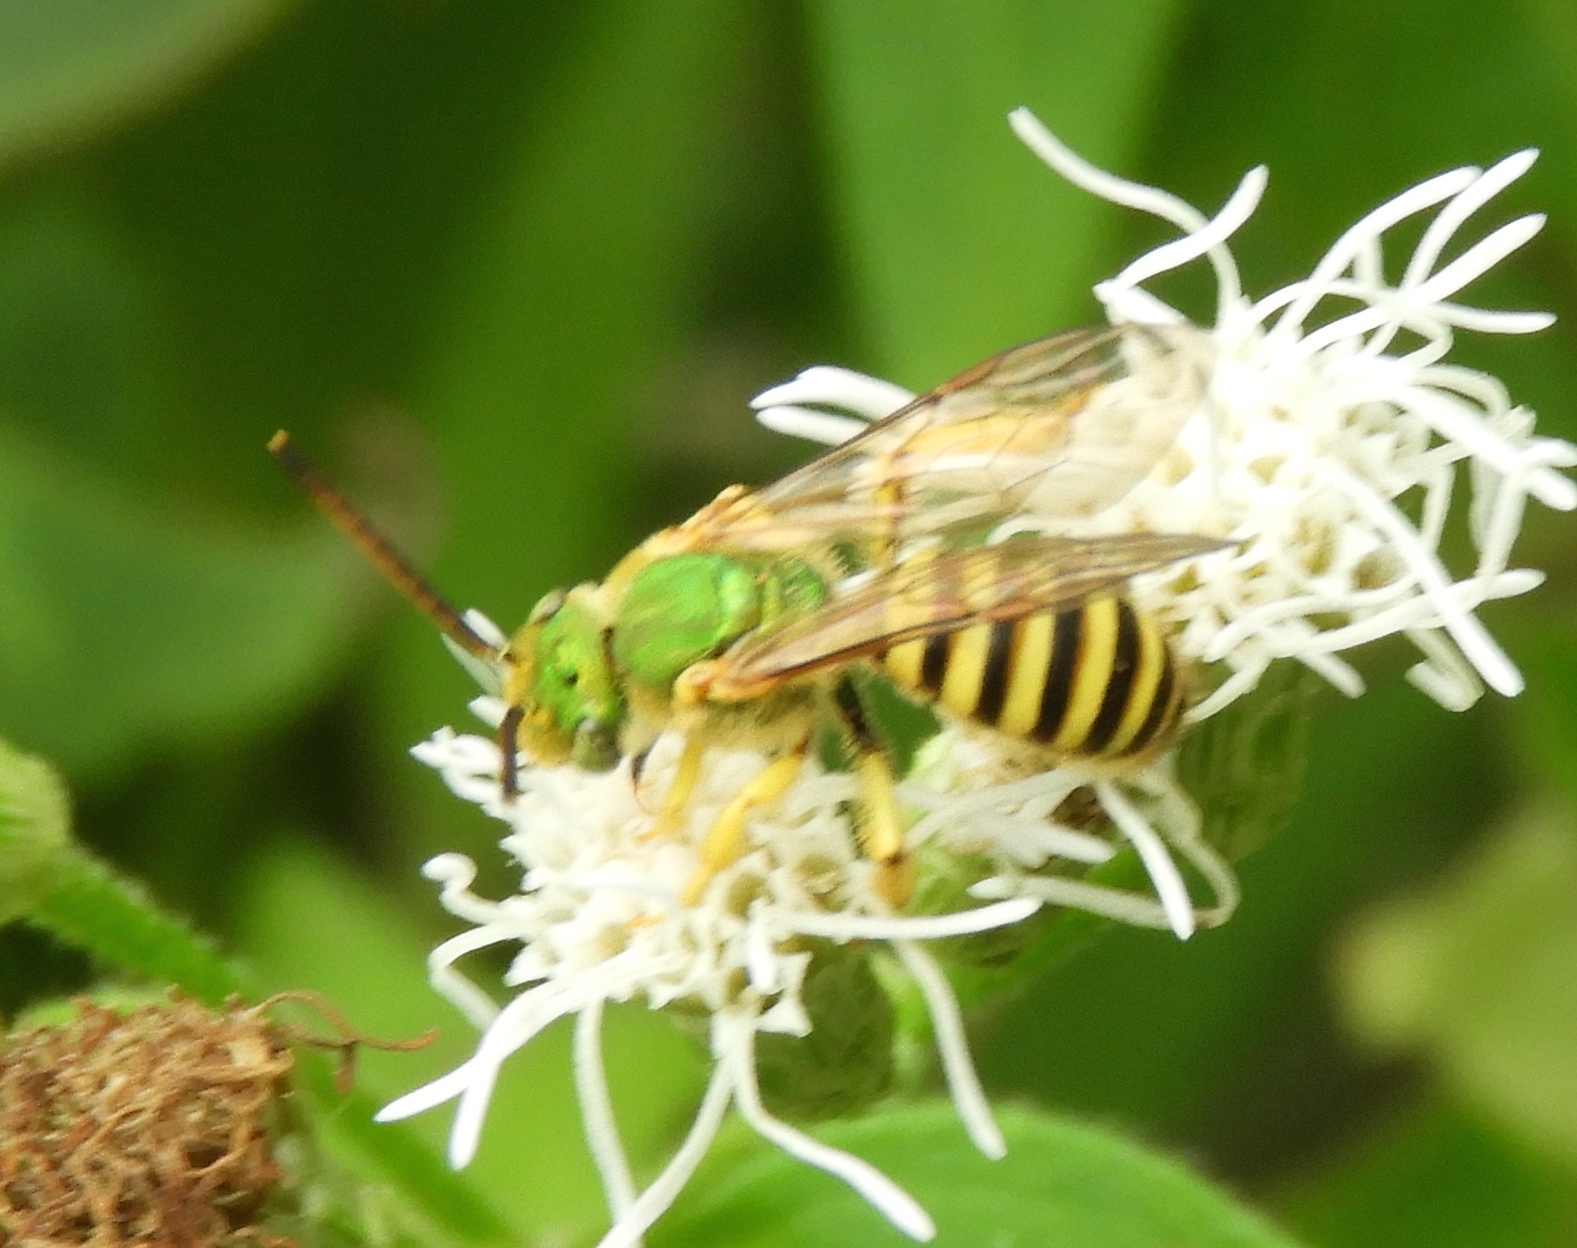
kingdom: Animalia
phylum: Arthropoda
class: Insecta
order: Hymenoptera
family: Halictidae
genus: Agapostemon
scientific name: Agapostemon nasutus
